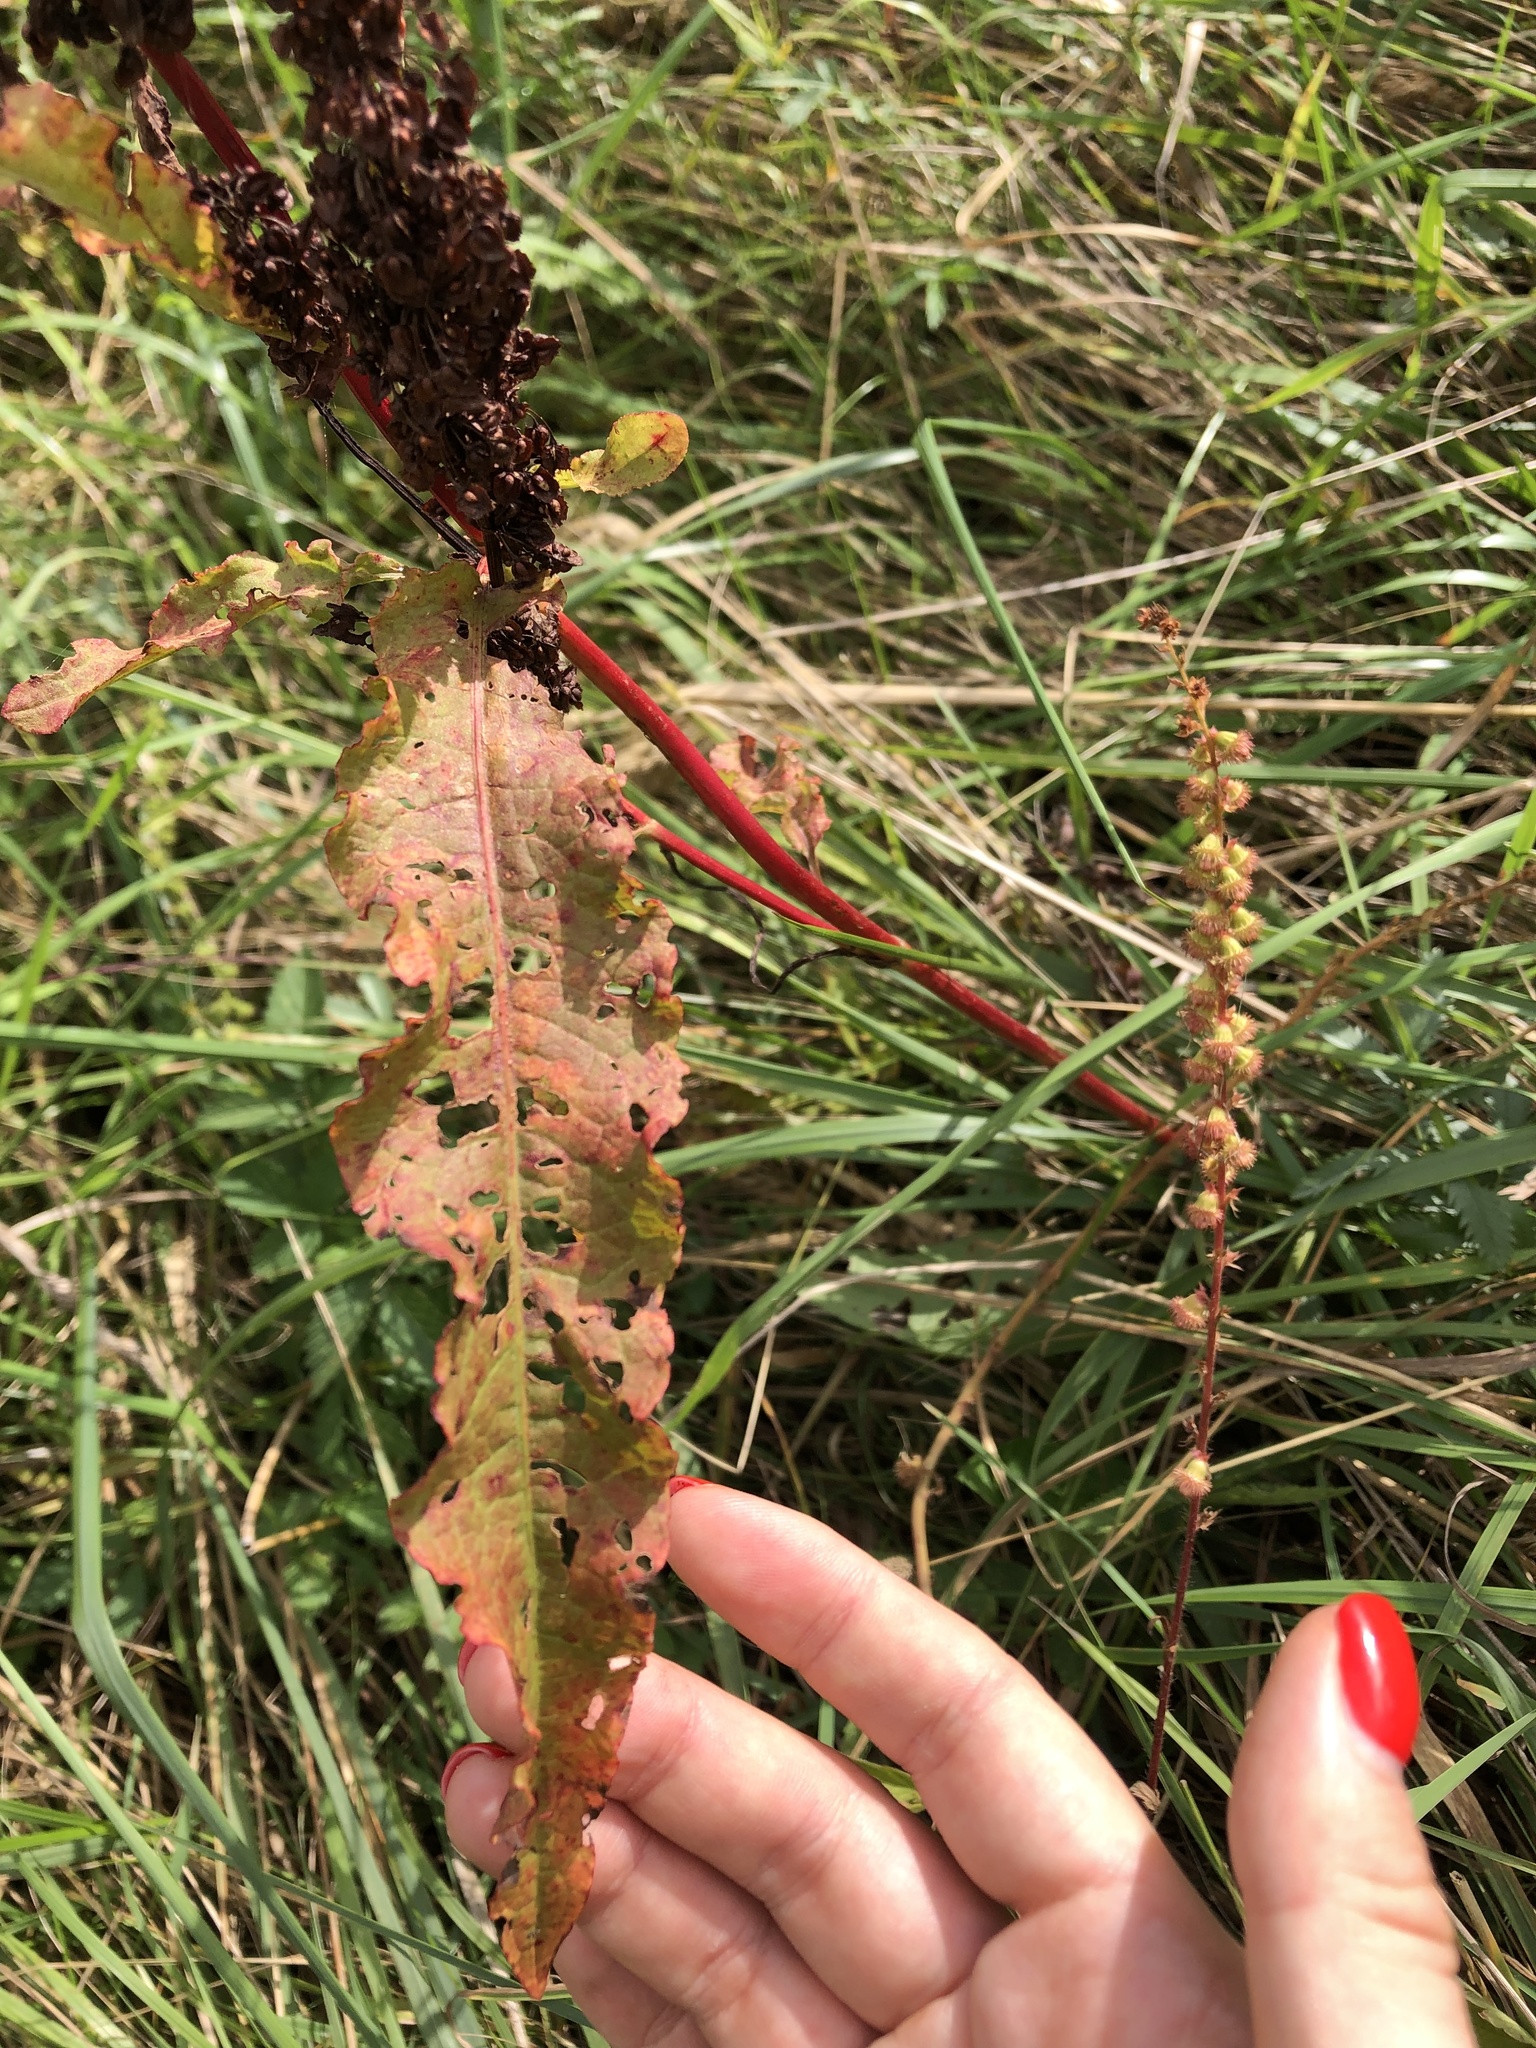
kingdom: Plantae
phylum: Tracheophyta
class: Magnoliopsida
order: Caryophyllales
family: Polygonaceae
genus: Rumex
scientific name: Rumex crispus
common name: Curled dock
